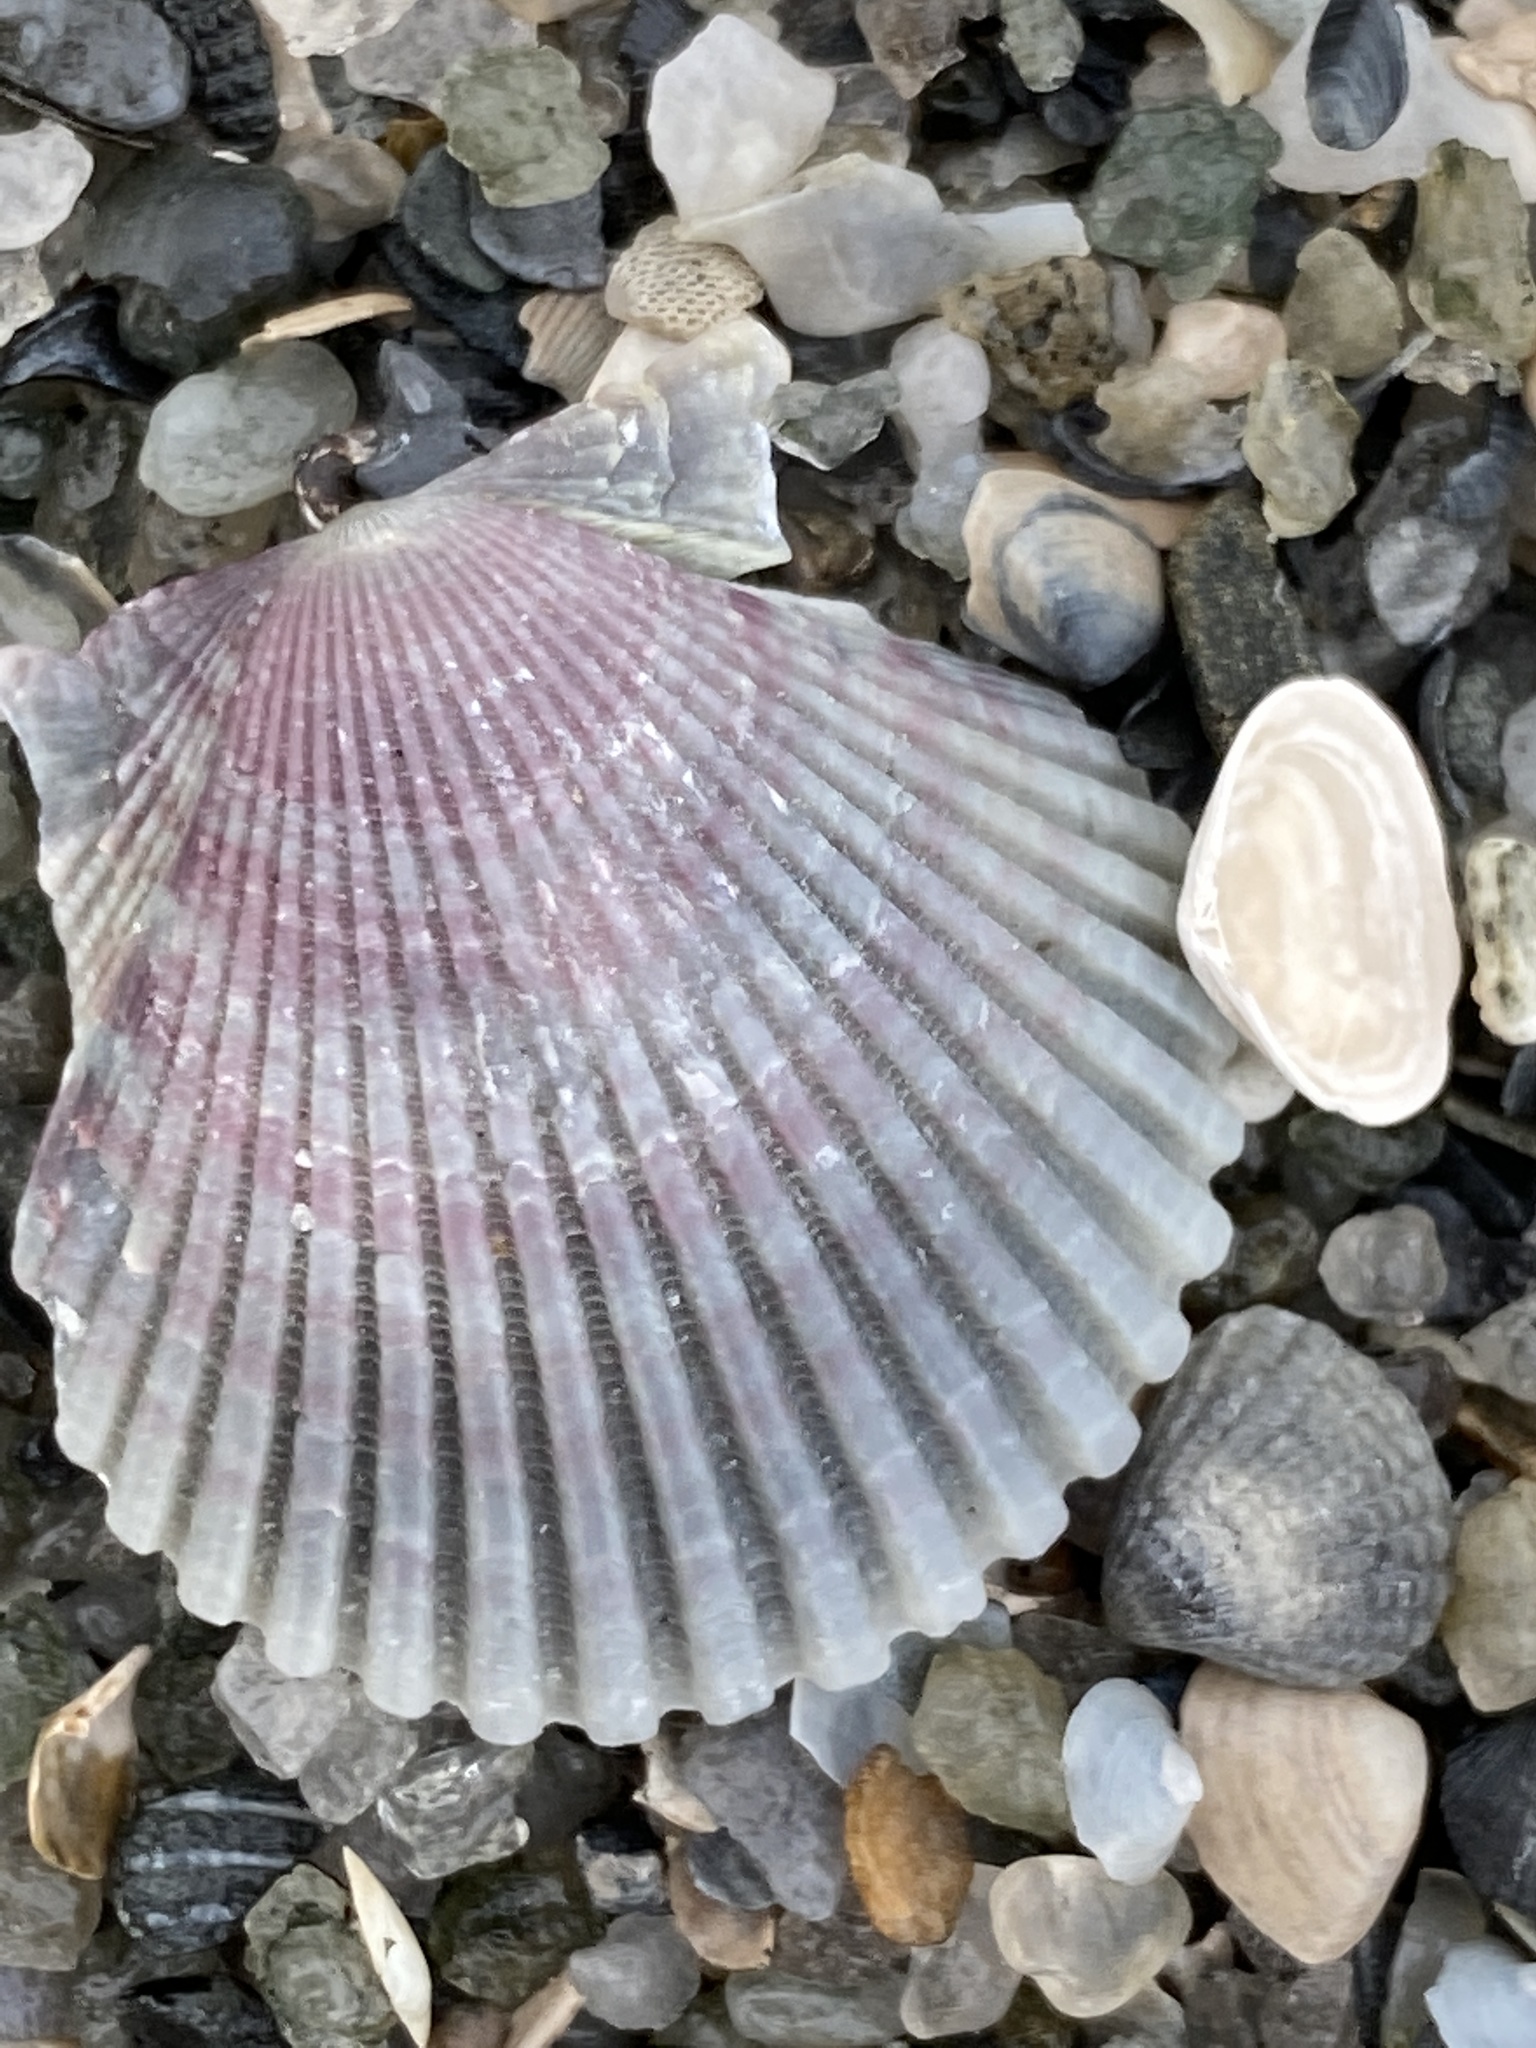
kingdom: Animalia
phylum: Mollusca
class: Bivalvia
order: Pectinida
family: Pectinidae
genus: Argopecten
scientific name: Argopecten gibbus
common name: Atlantic calico scallop
